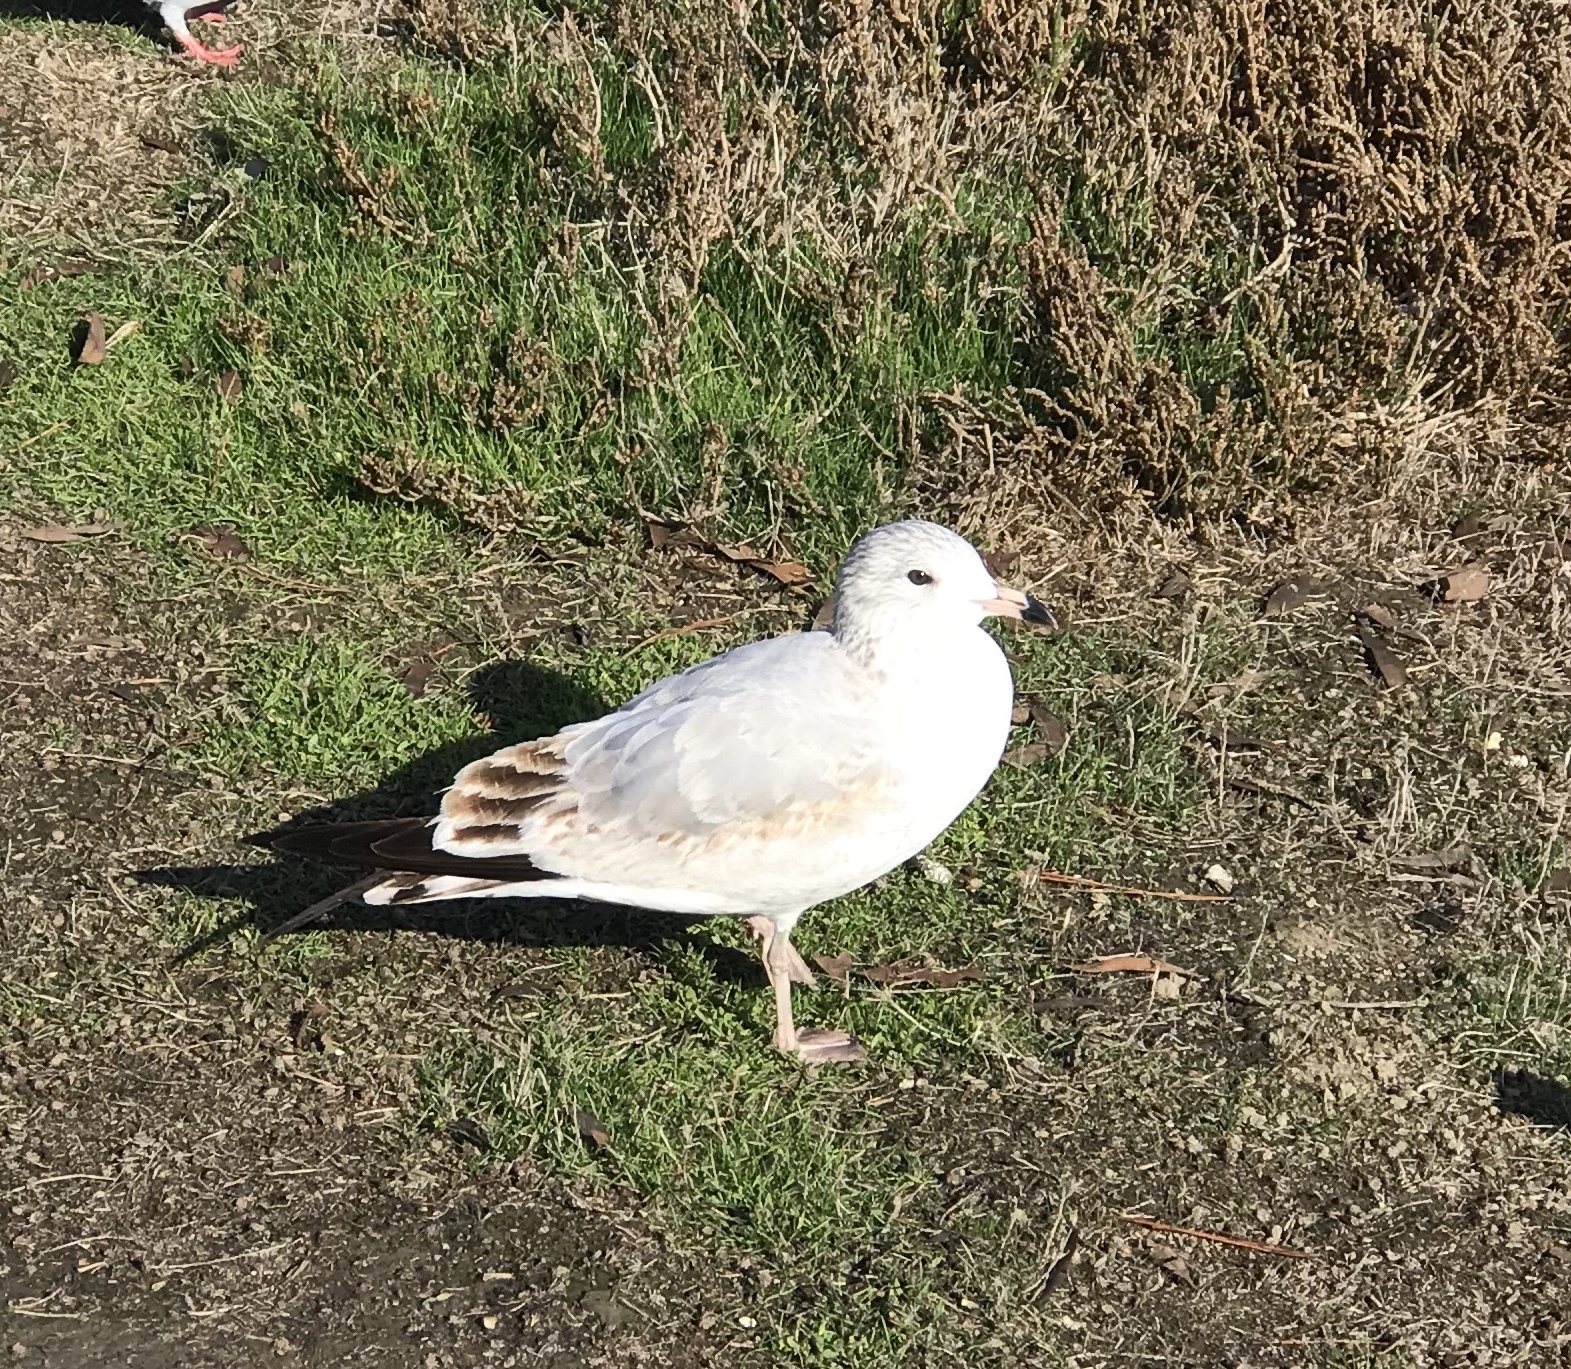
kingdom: Animalia
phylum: Chordata
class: Aves
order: Charadriiformes
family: Laridae
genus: Larus
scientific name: Larus delawarensis
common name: Ring-billed gull
